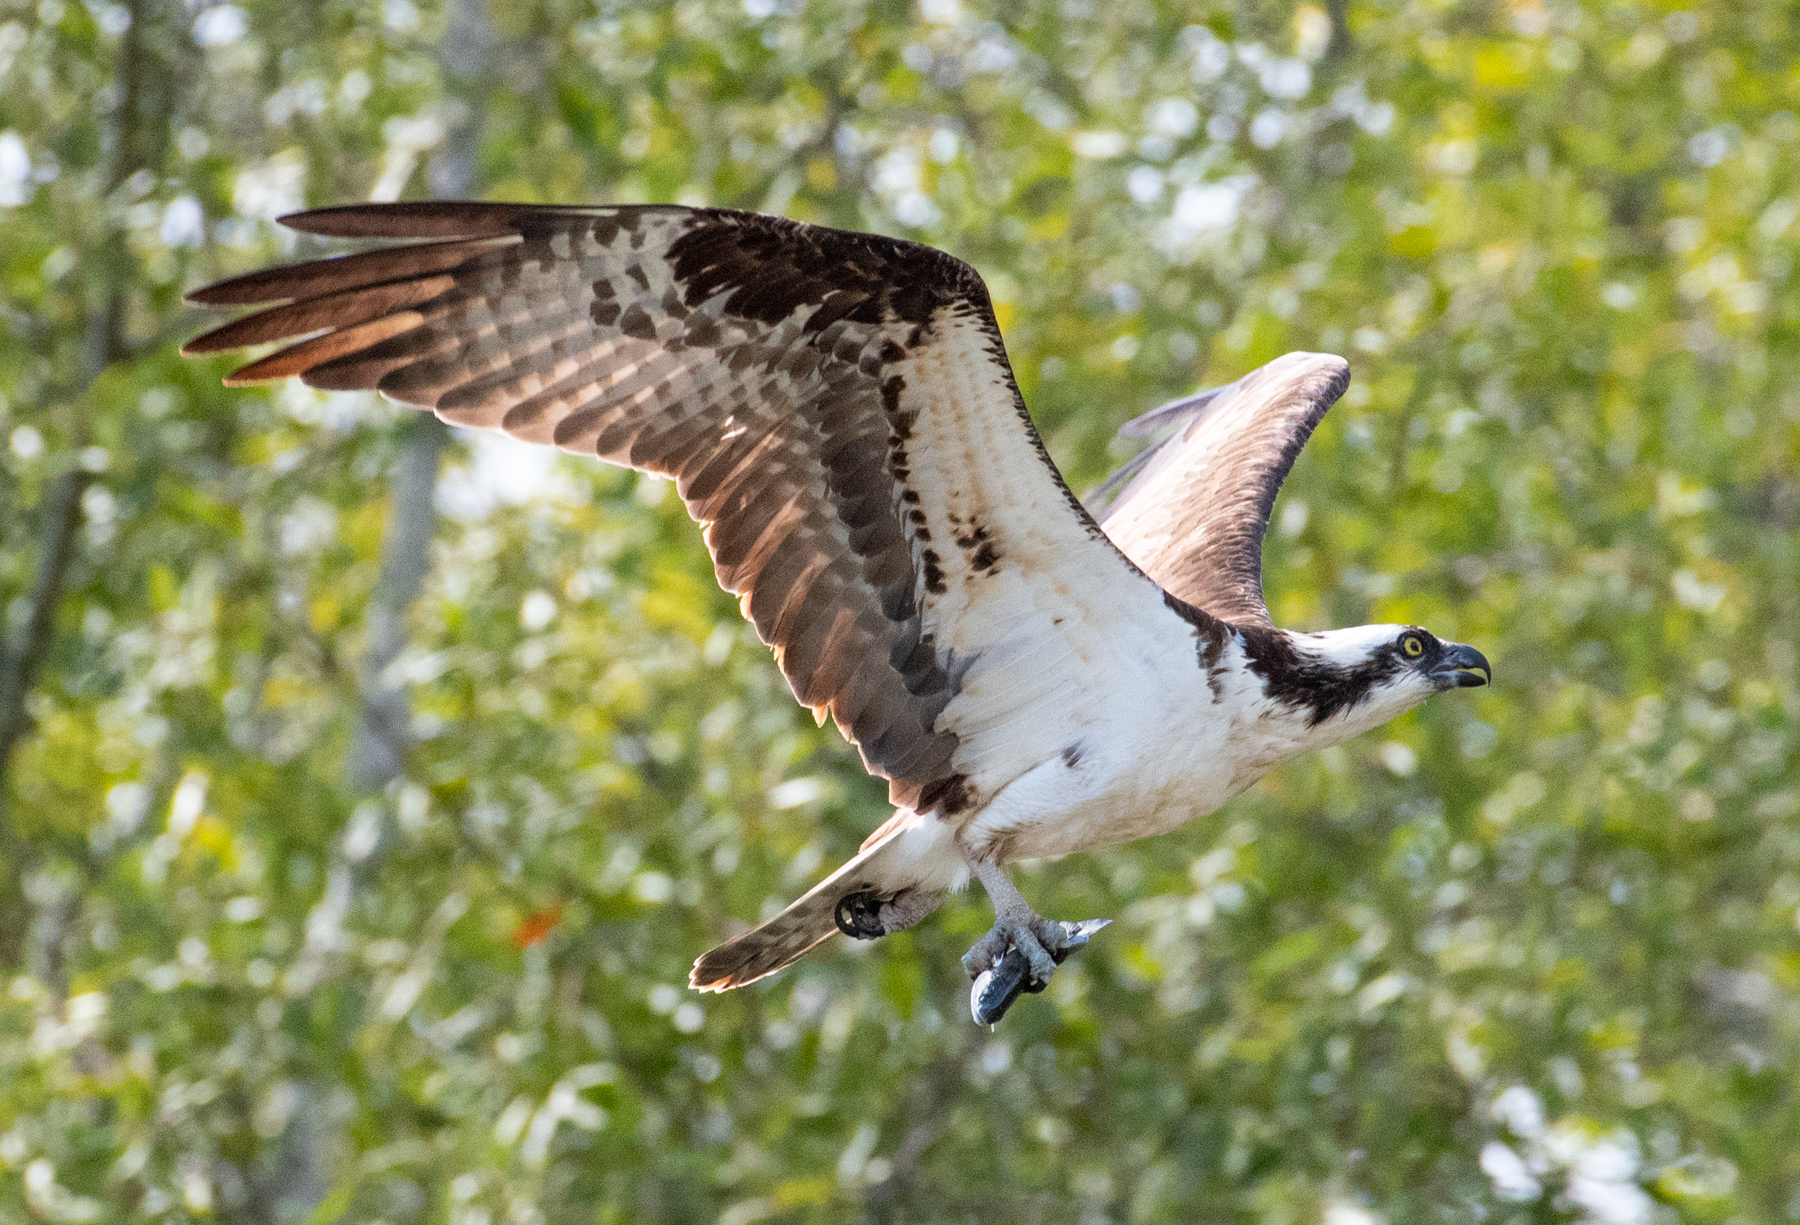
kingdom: Animalia
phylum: Chordata
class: Aves
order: Accipitriformes
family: Pandionidae
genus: Pandion
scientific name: Pandion haliaetus
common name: Osprey
